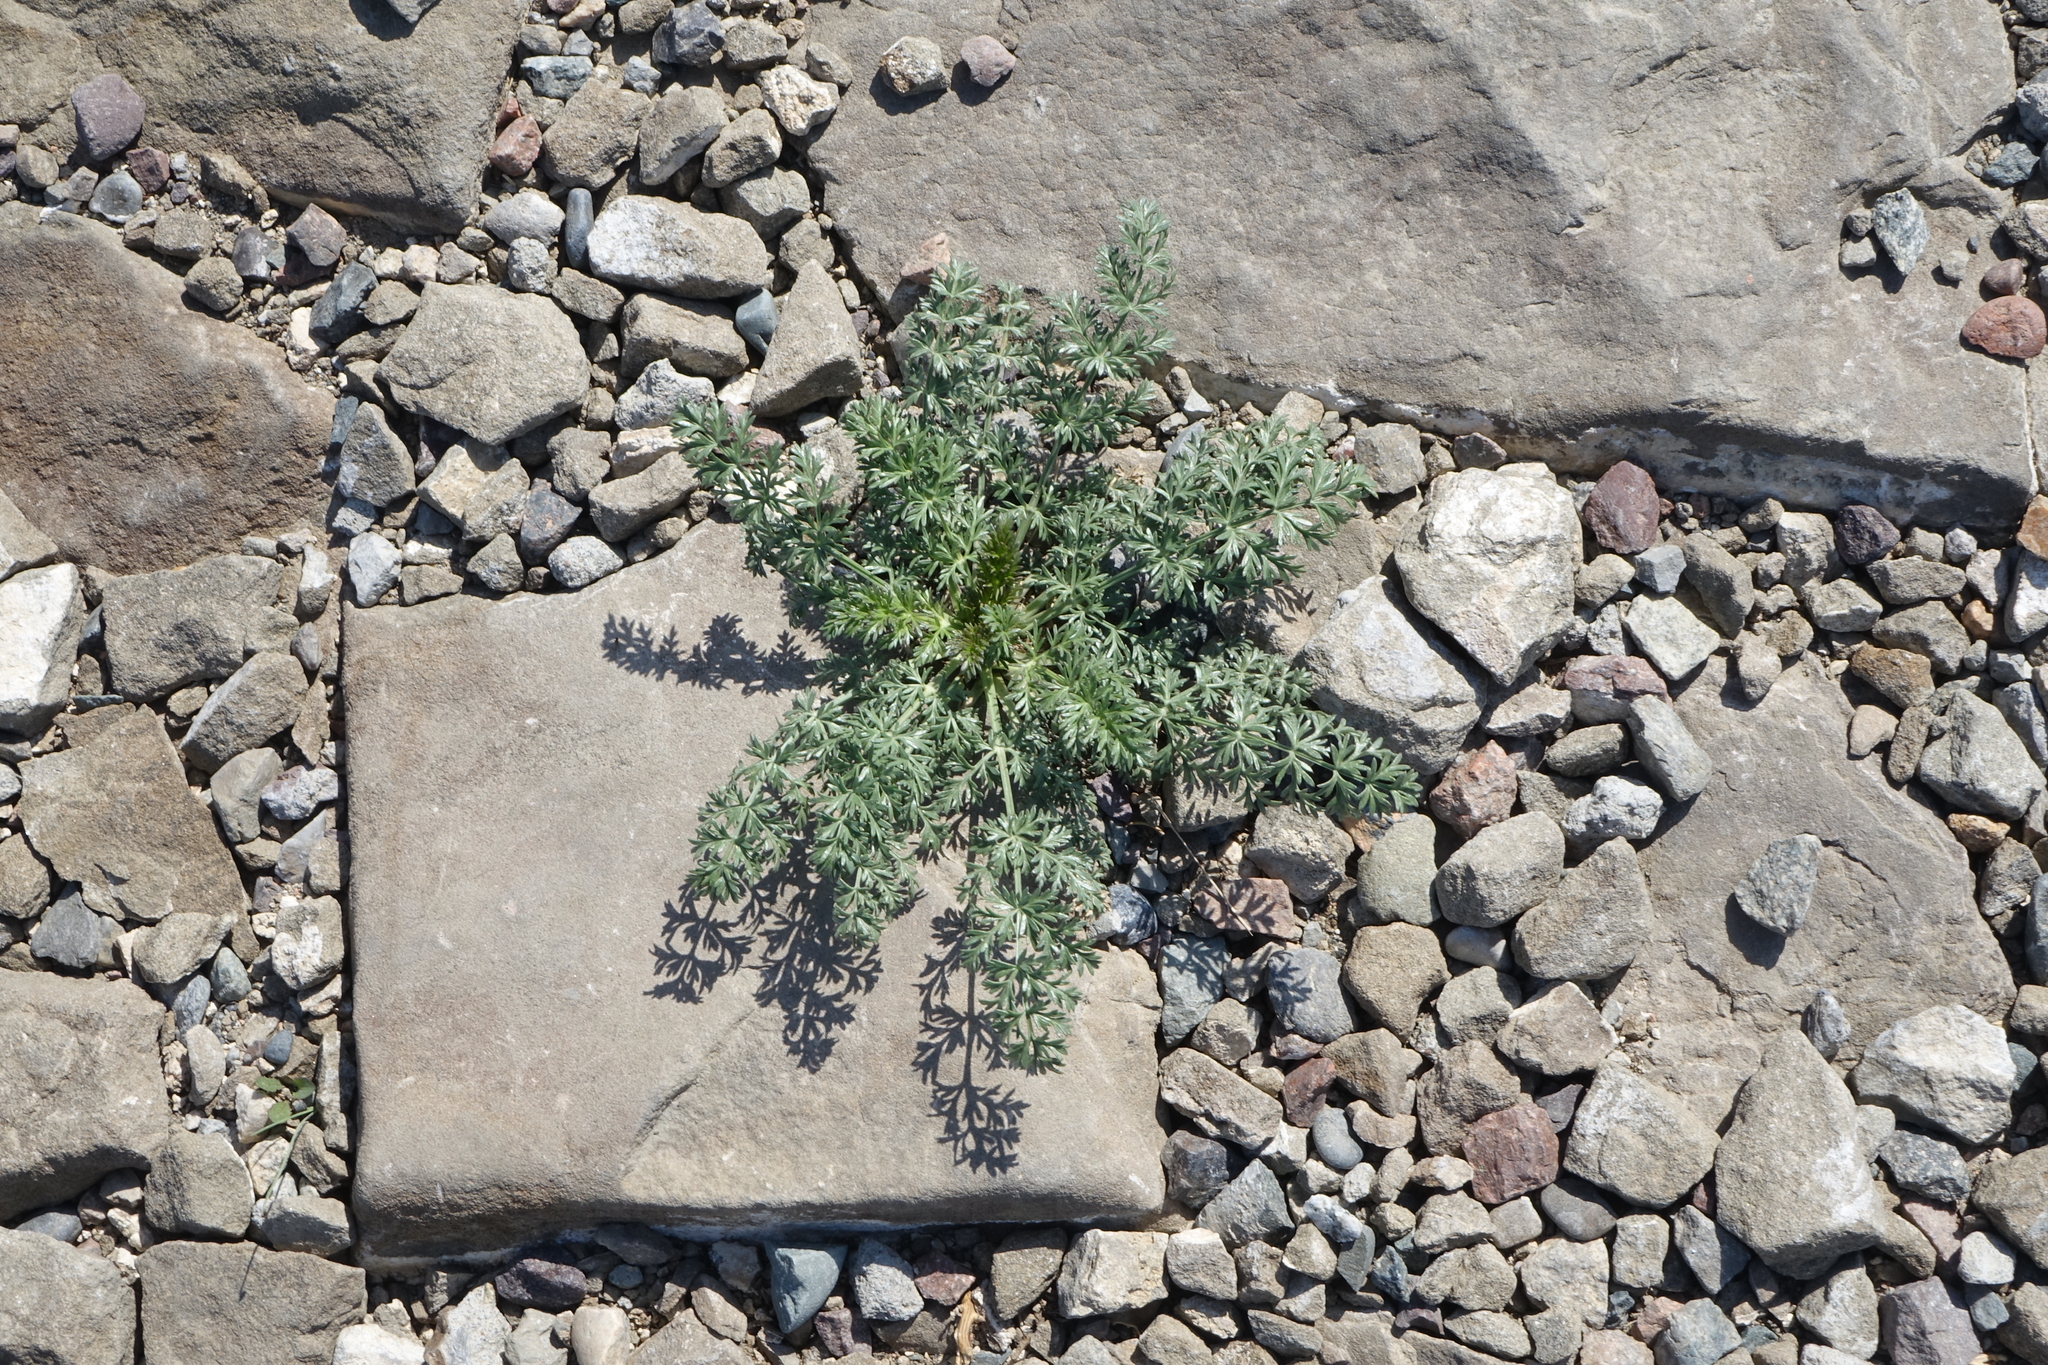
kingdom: Plantae
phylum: Tracheophyta
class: Magnoliopsida
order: Apiales
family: Apiaceae
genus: Kitagawia
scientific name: Kitagawia baicalensis
